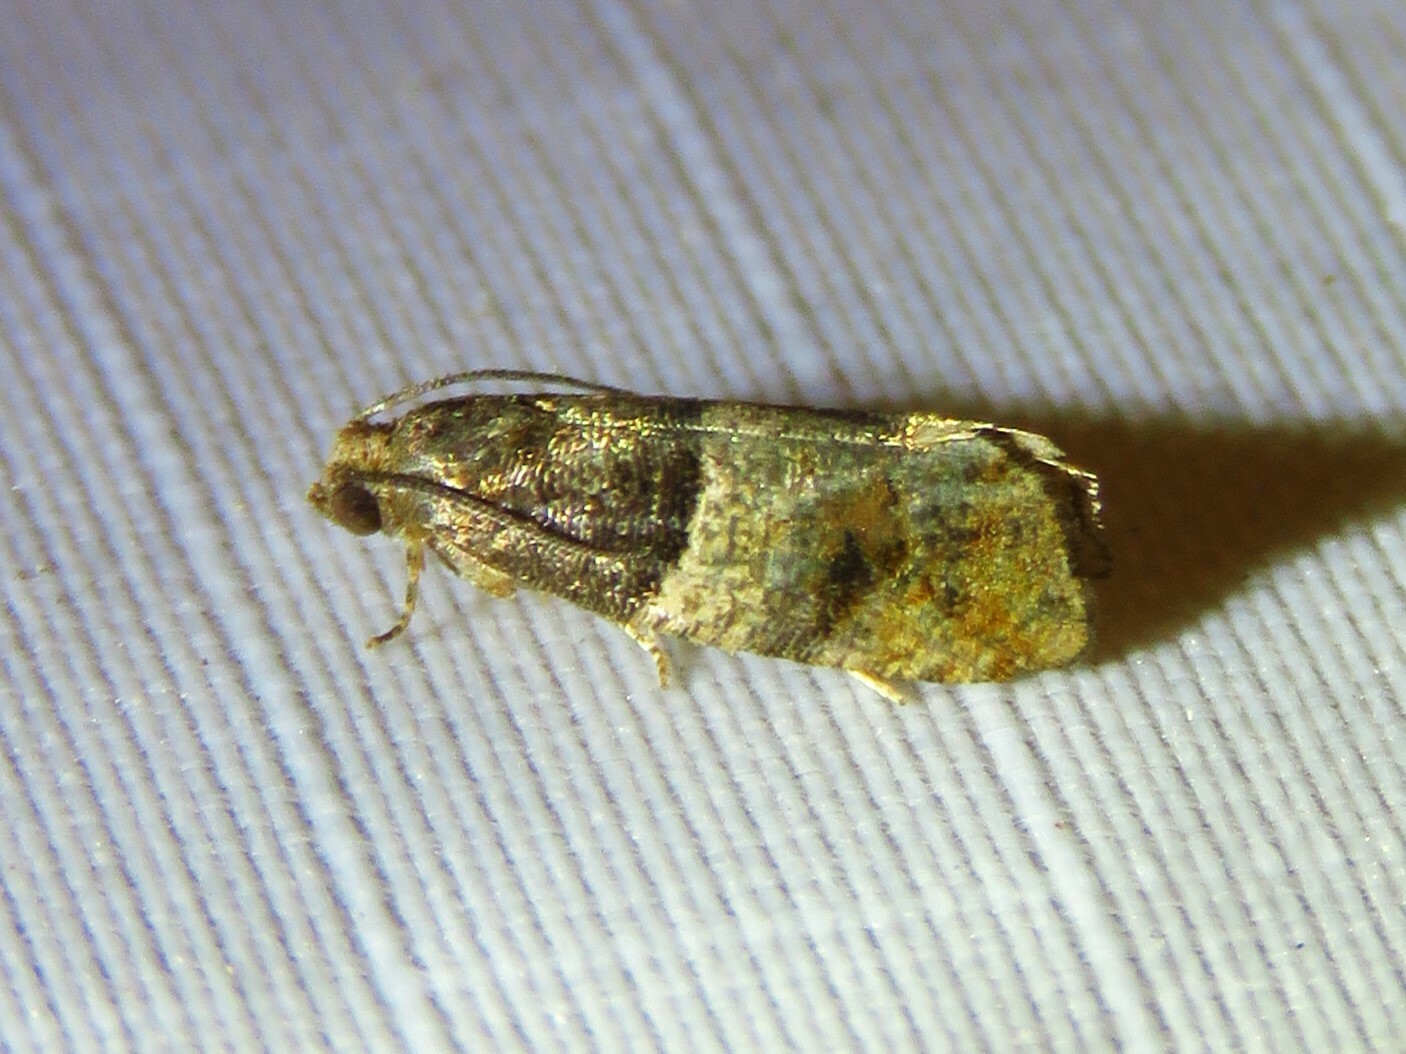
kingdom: Animalia
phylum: Arthropoda
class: Insecta
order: Lepidoptera
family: Tortricidae
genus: Larisa
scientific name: Larisa subsolana
